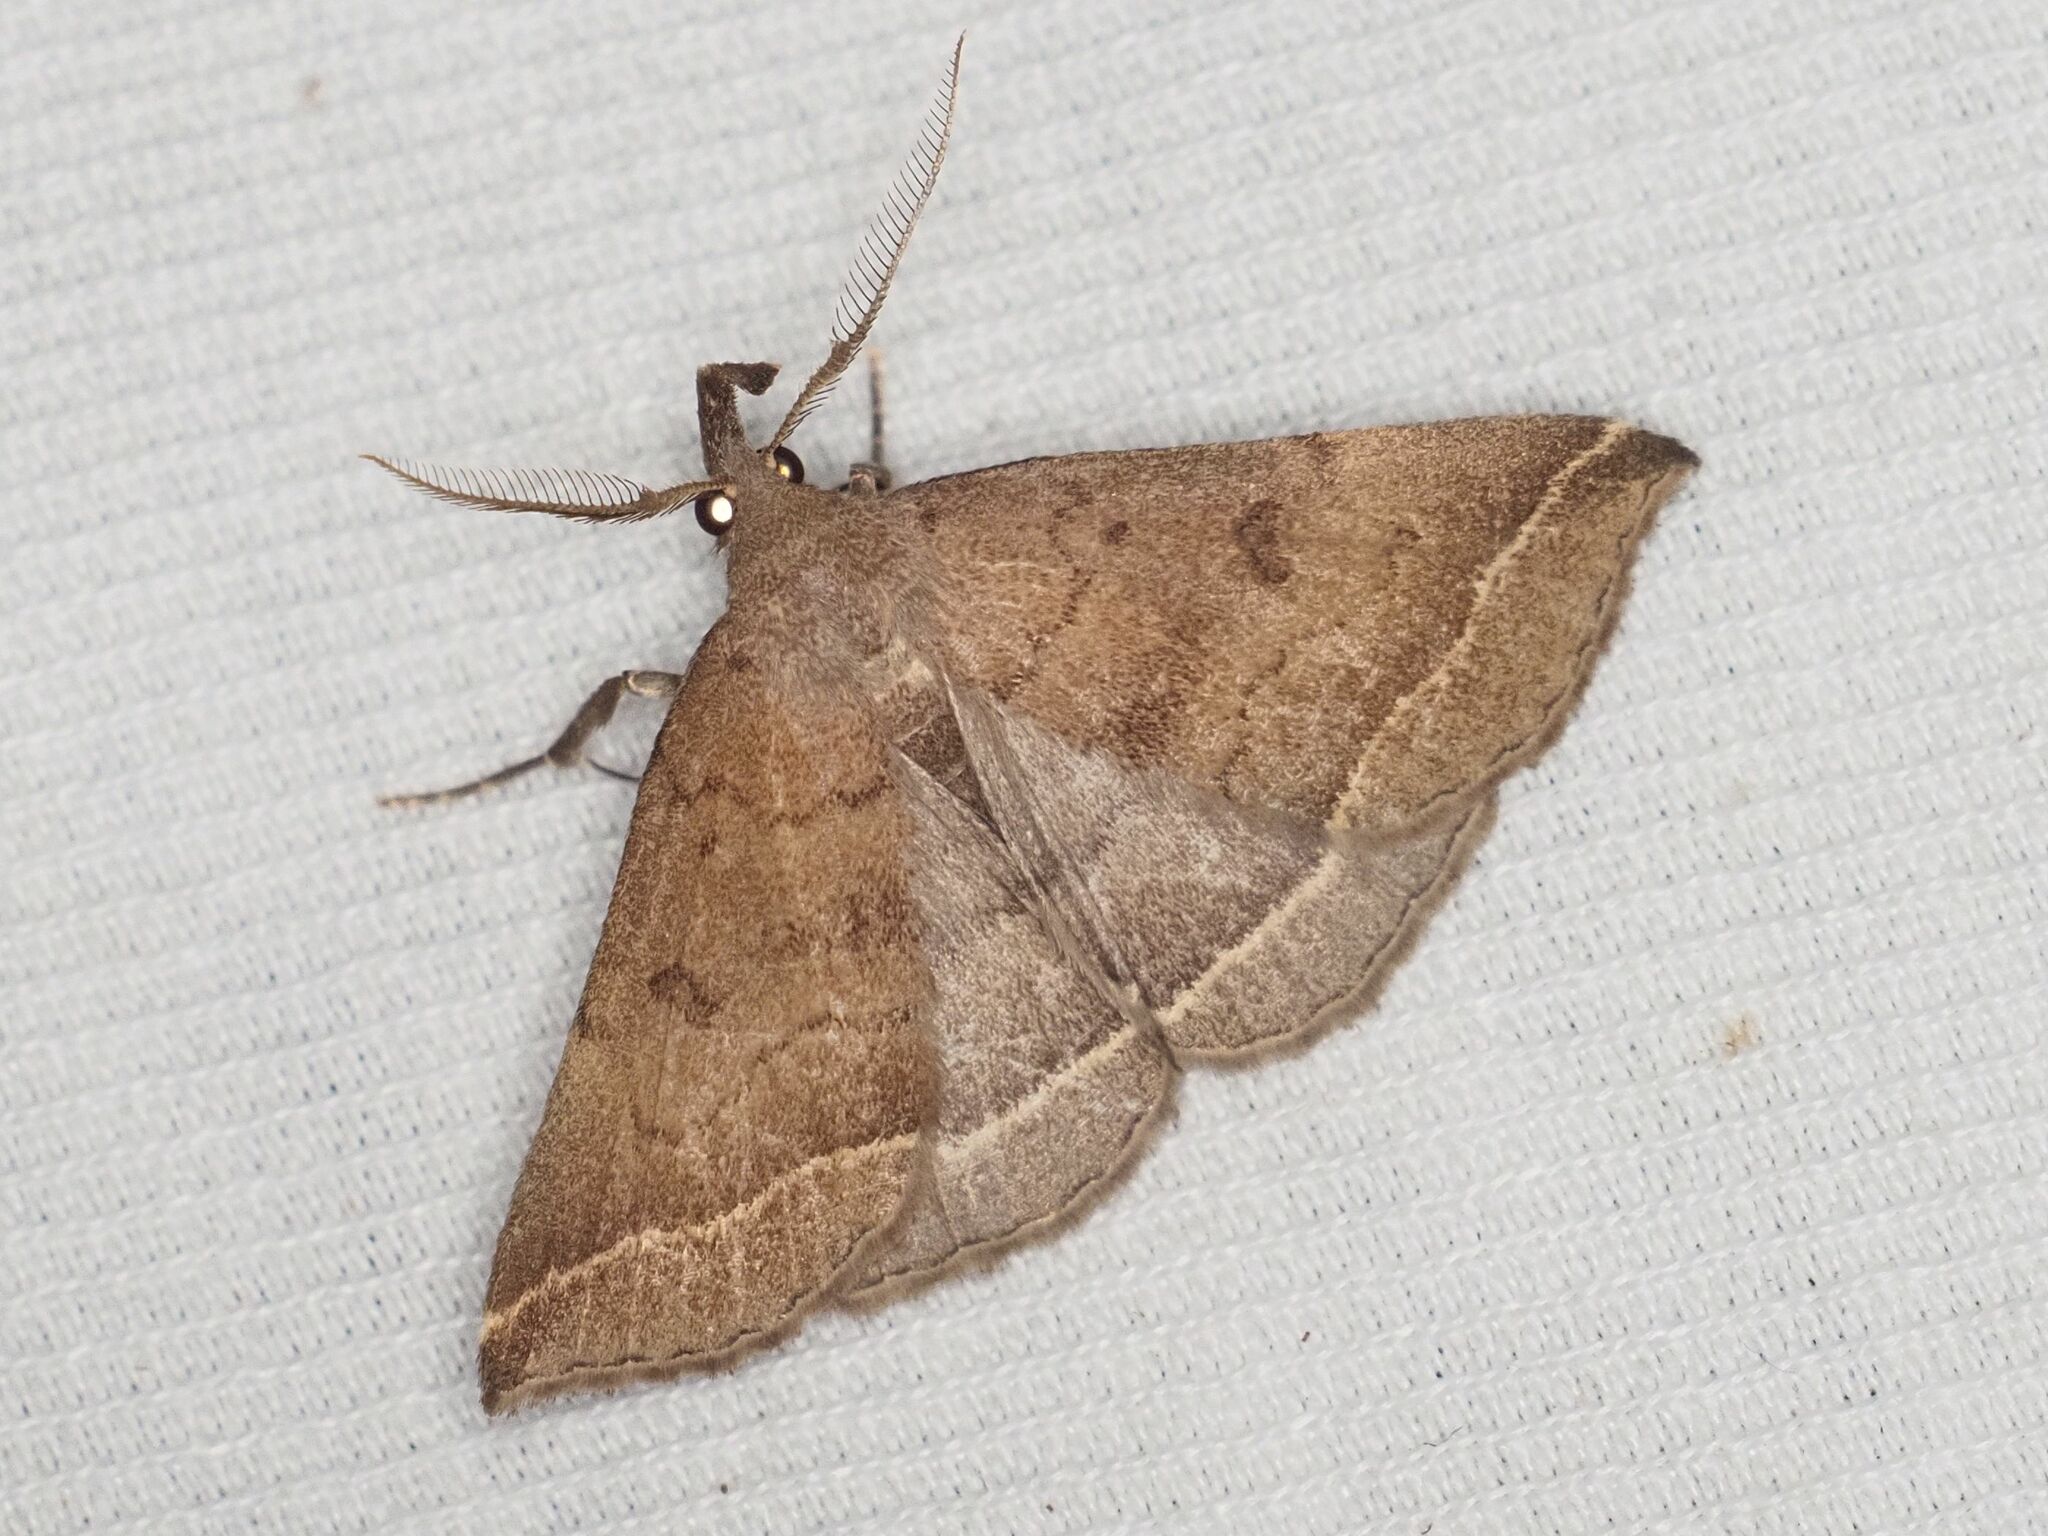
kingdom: Animalia
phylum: Arthropoda
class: Insecta
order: Lepidoptera
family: Erebidae
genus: Pechipogo
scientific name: Pechipogo plumigeralis
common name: Plumed fan-foot
